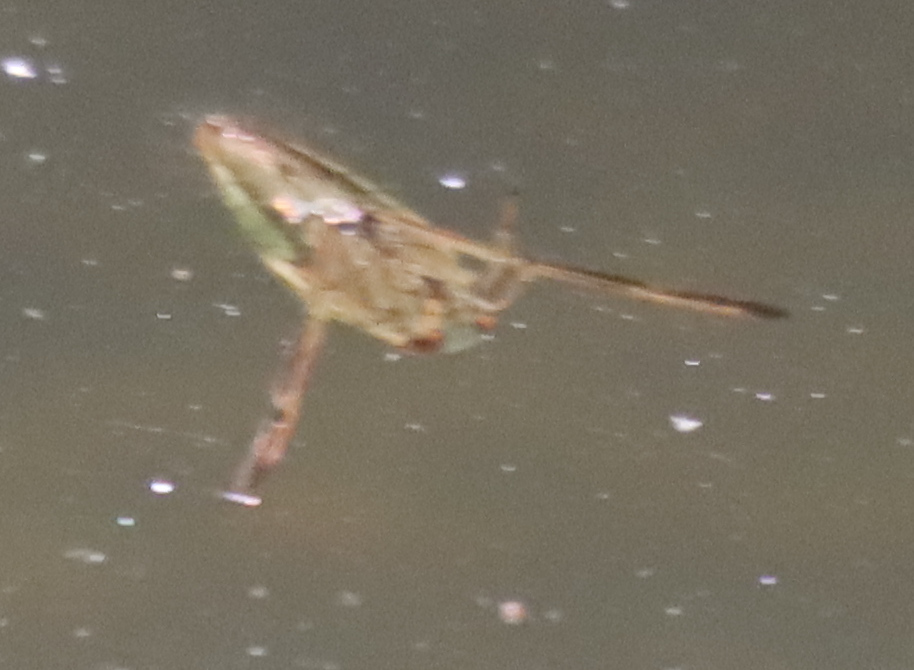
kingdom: Animalia
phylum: Arthropoda
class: Insecta
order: Hemiptera
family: Notonectidae
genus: Notonecta
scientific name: Notonecta
